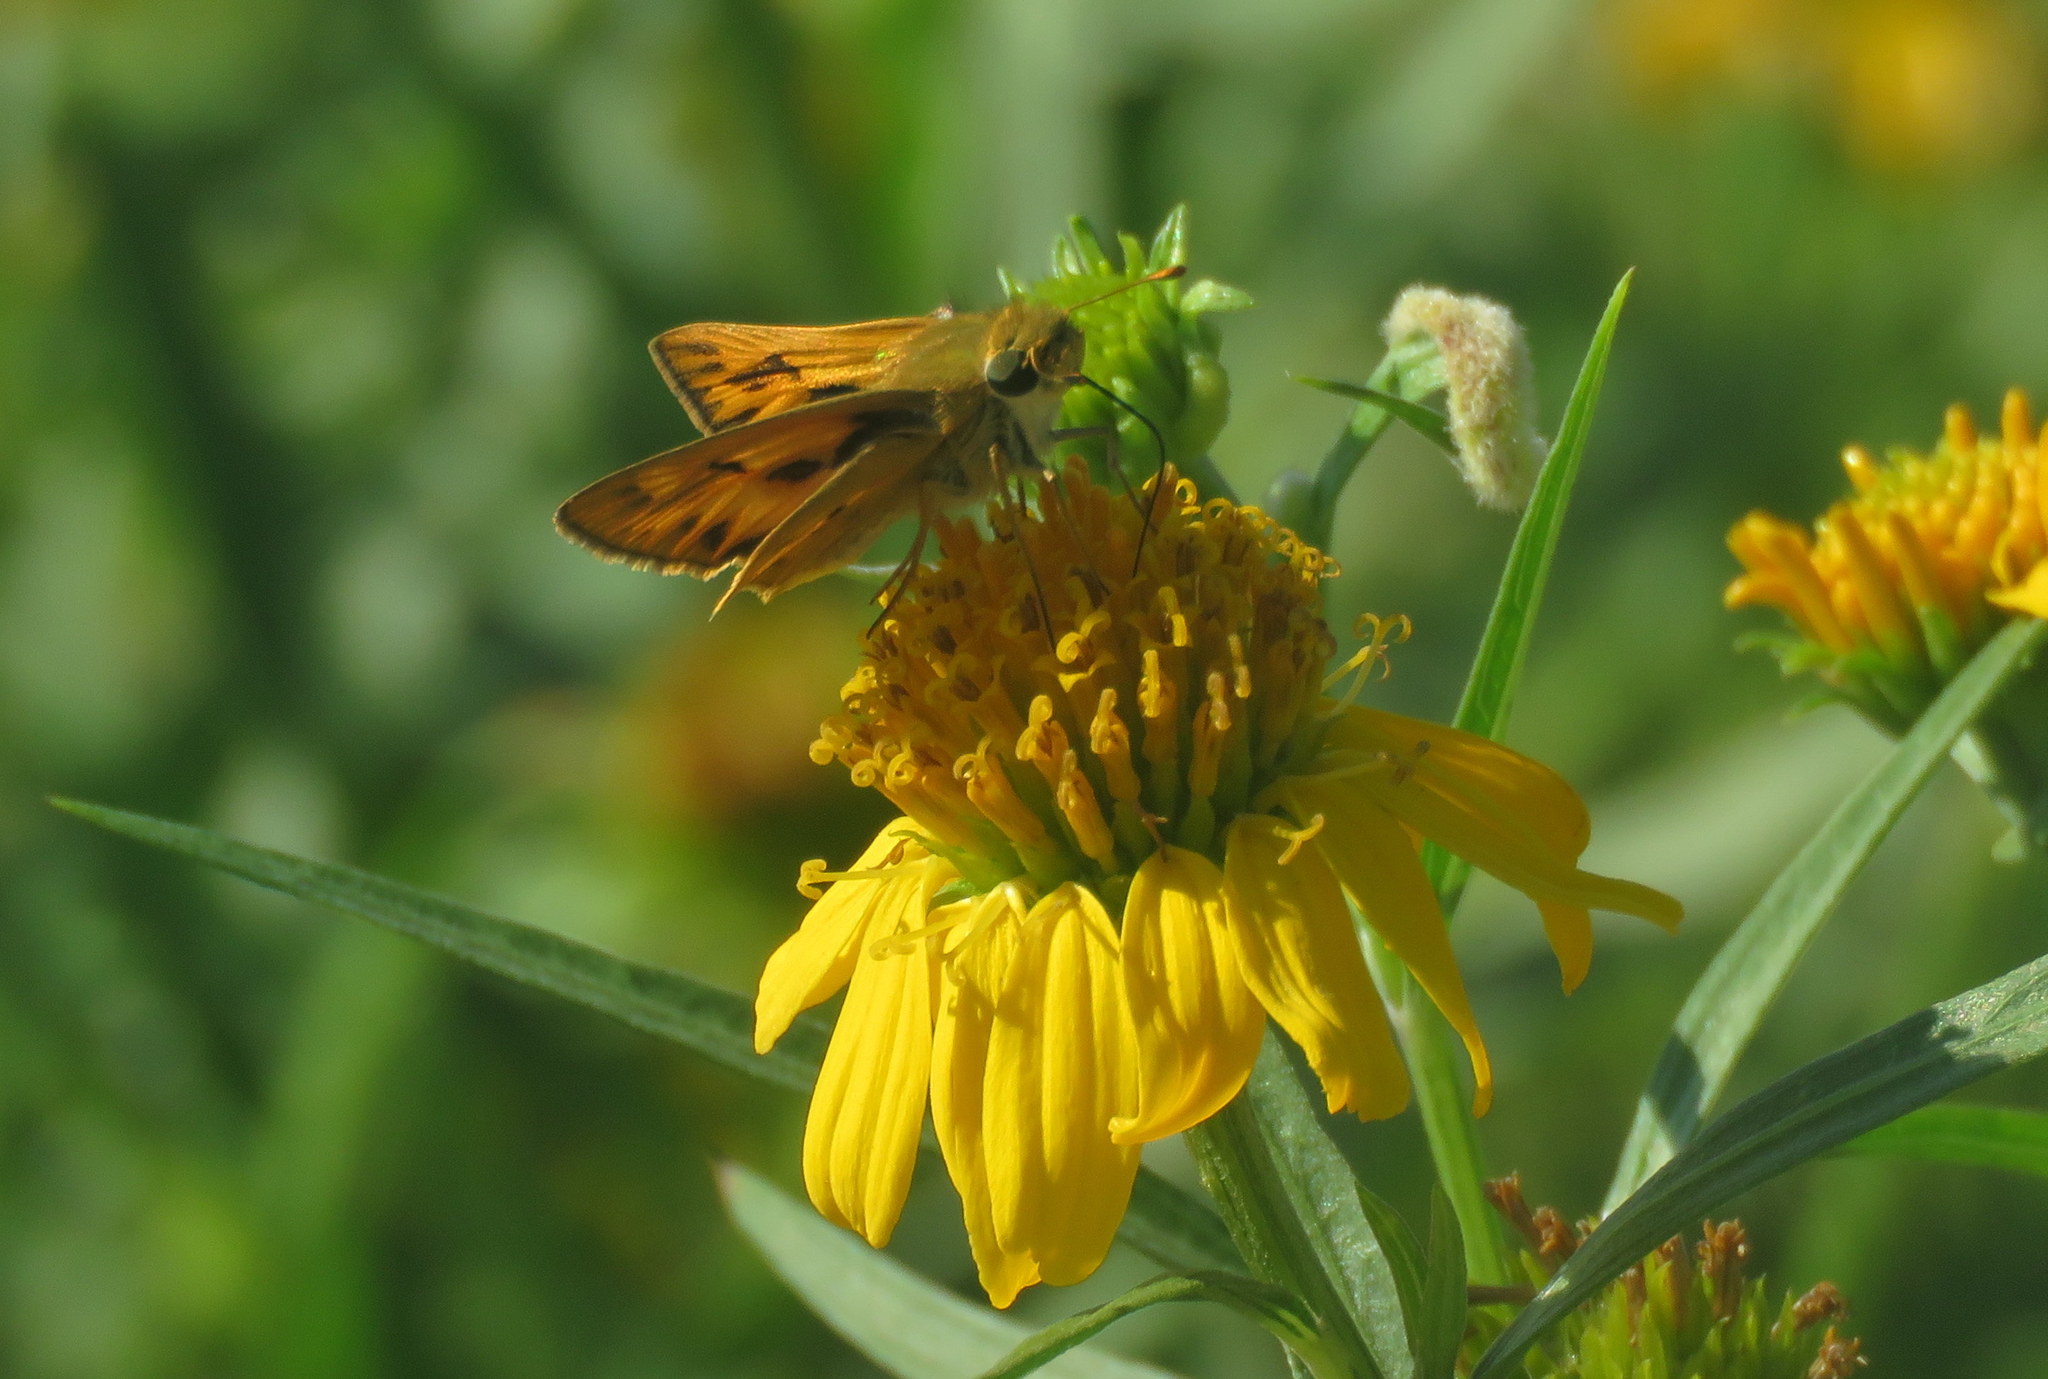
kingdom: Animalia
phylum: Arthropoda
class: Insecta
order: Lepidoptera
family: Hesperiidae
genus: Hylephila
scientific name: Hylephila phyleus
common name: Fiery skipper
